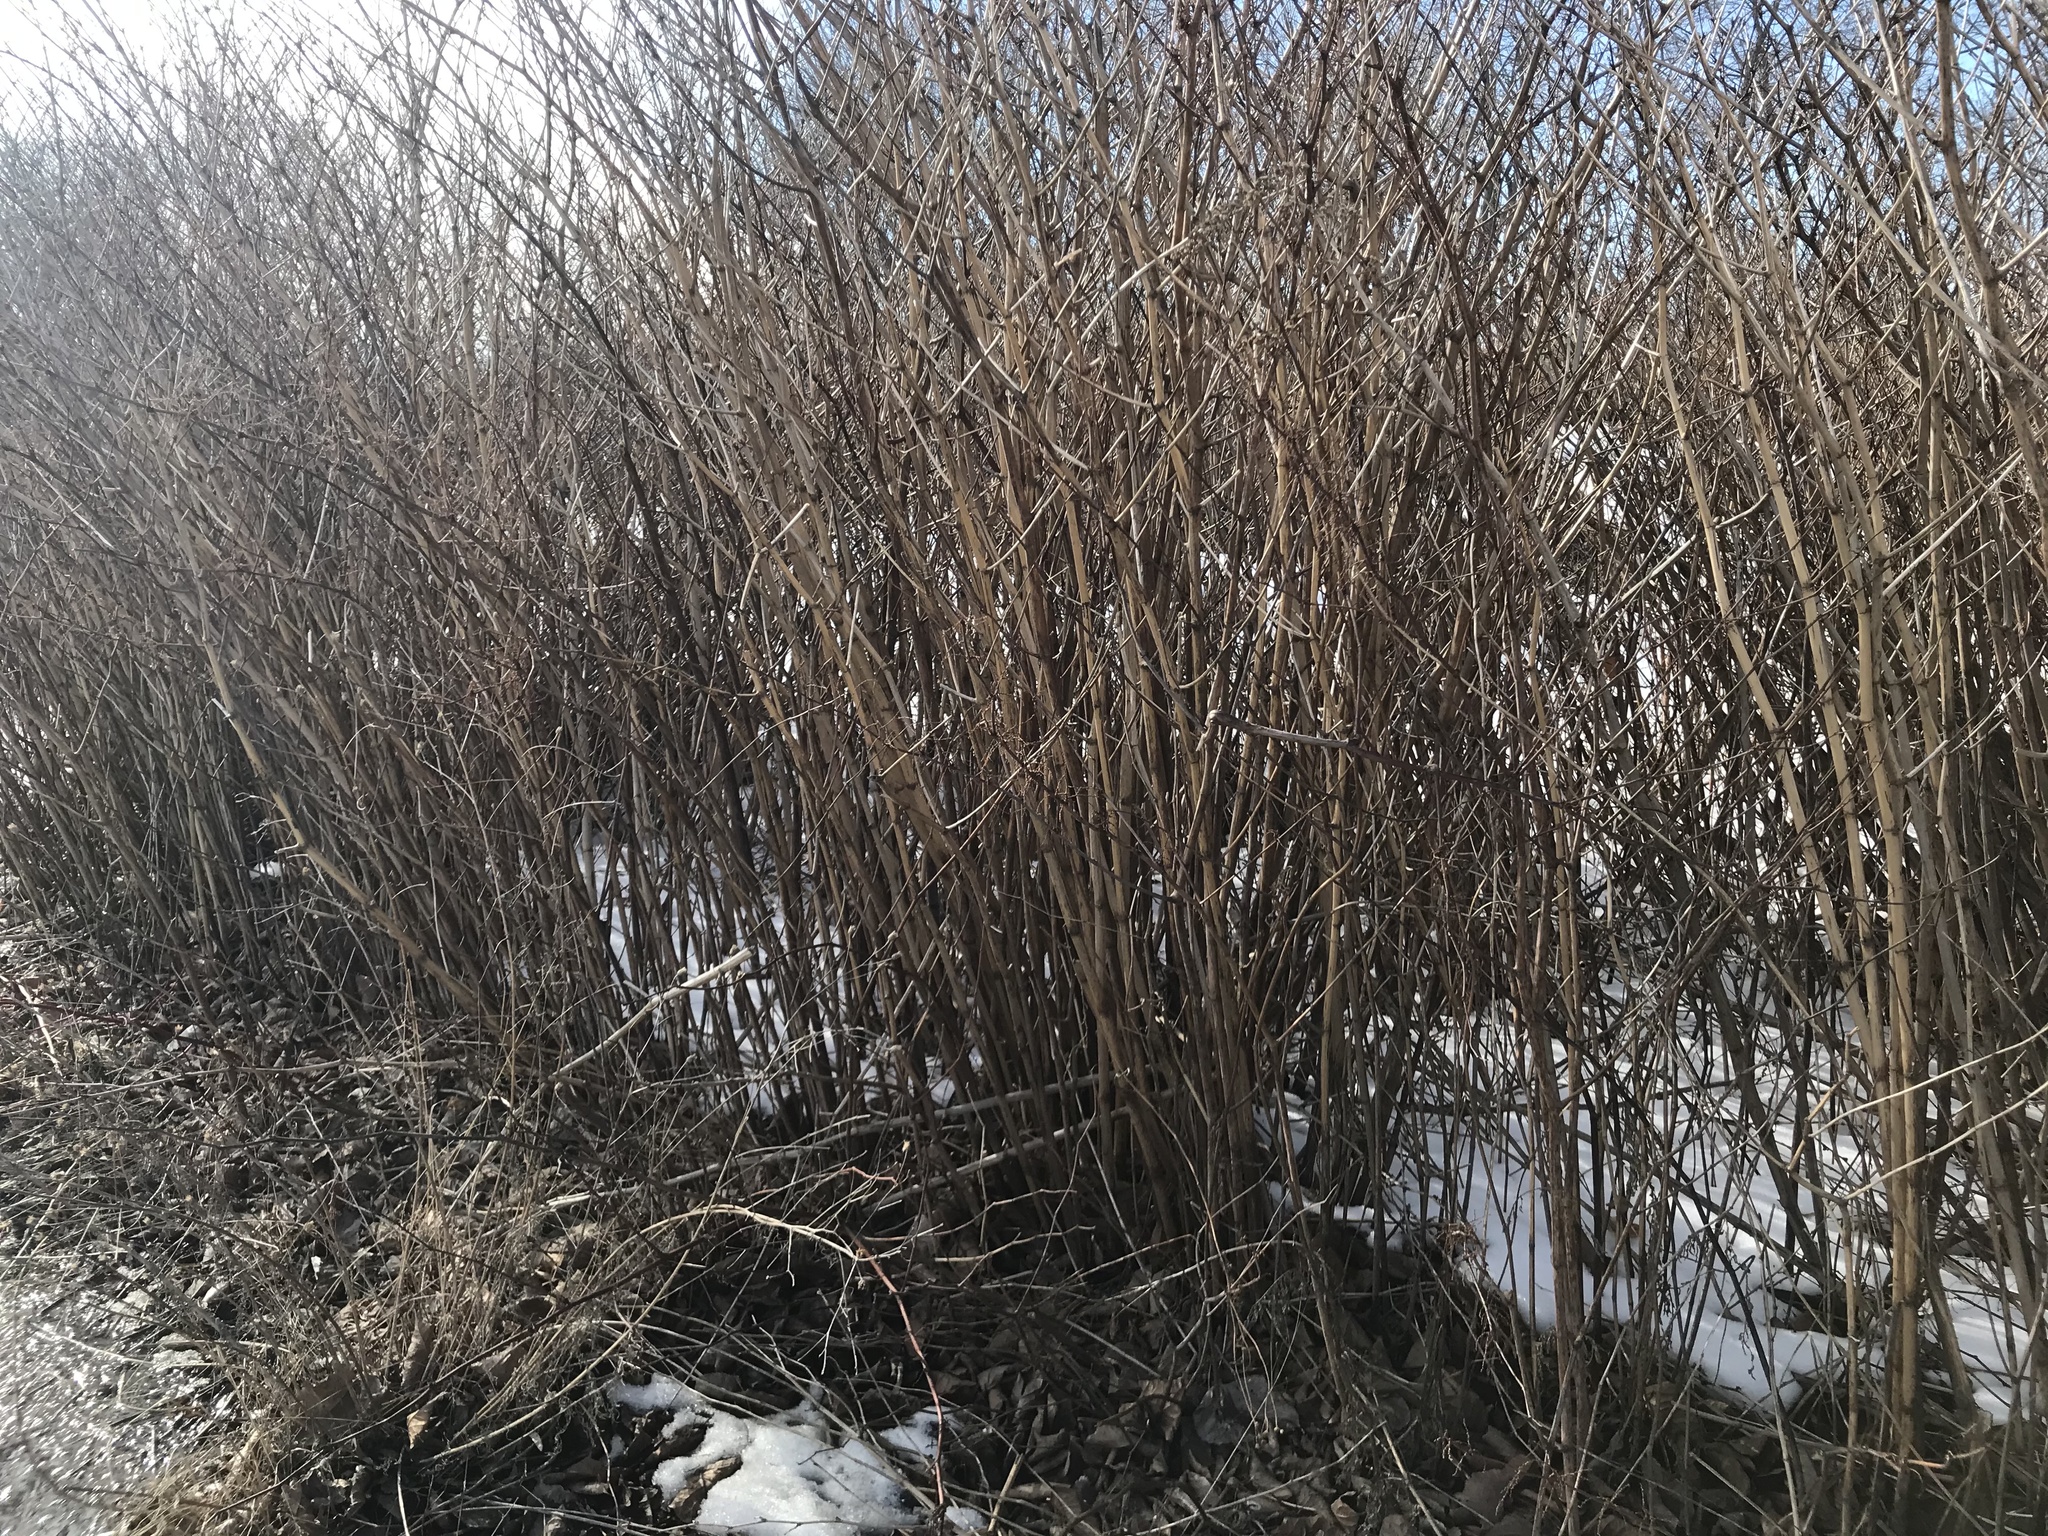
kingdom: Plantae
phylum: Tracheophyta
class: Magnoliopsida
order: Caryophyllales
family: Polygonaceae
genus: Reynoutria
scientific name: Reynoutria japonica
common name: Japanese knotweed
